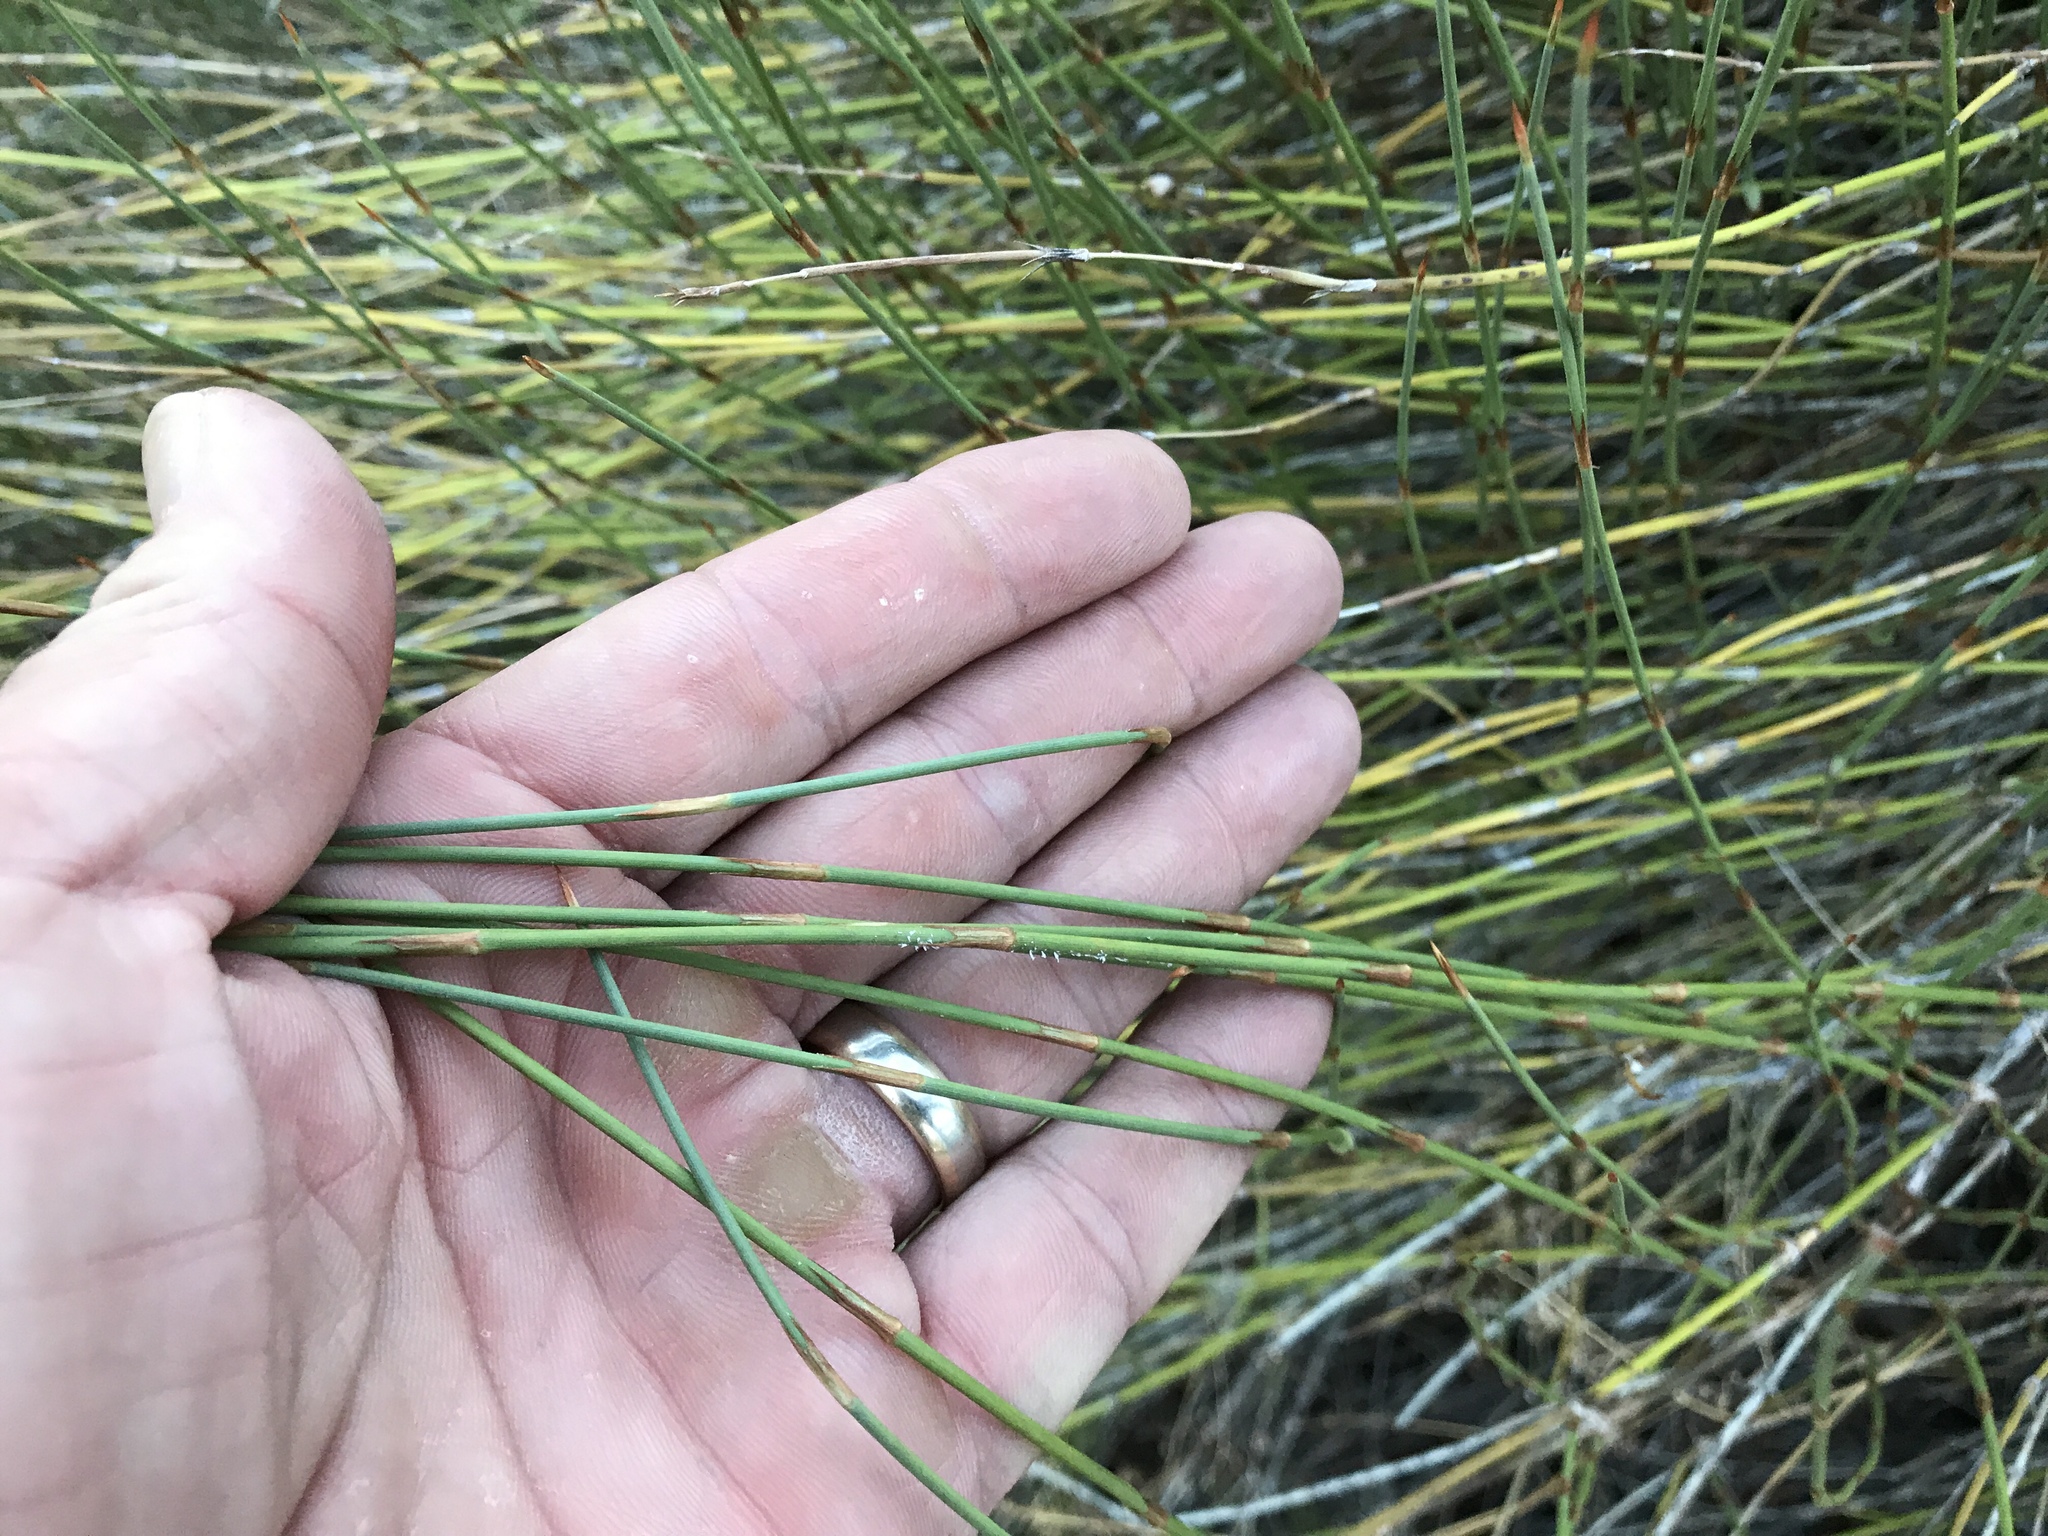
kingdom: Plantae
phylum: Tracheophyta
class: Gnetopsida
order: Ephedrales
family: Ephedraceae
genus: Ephedra
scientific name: Ephedra trifurca
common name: Mexican-tea
